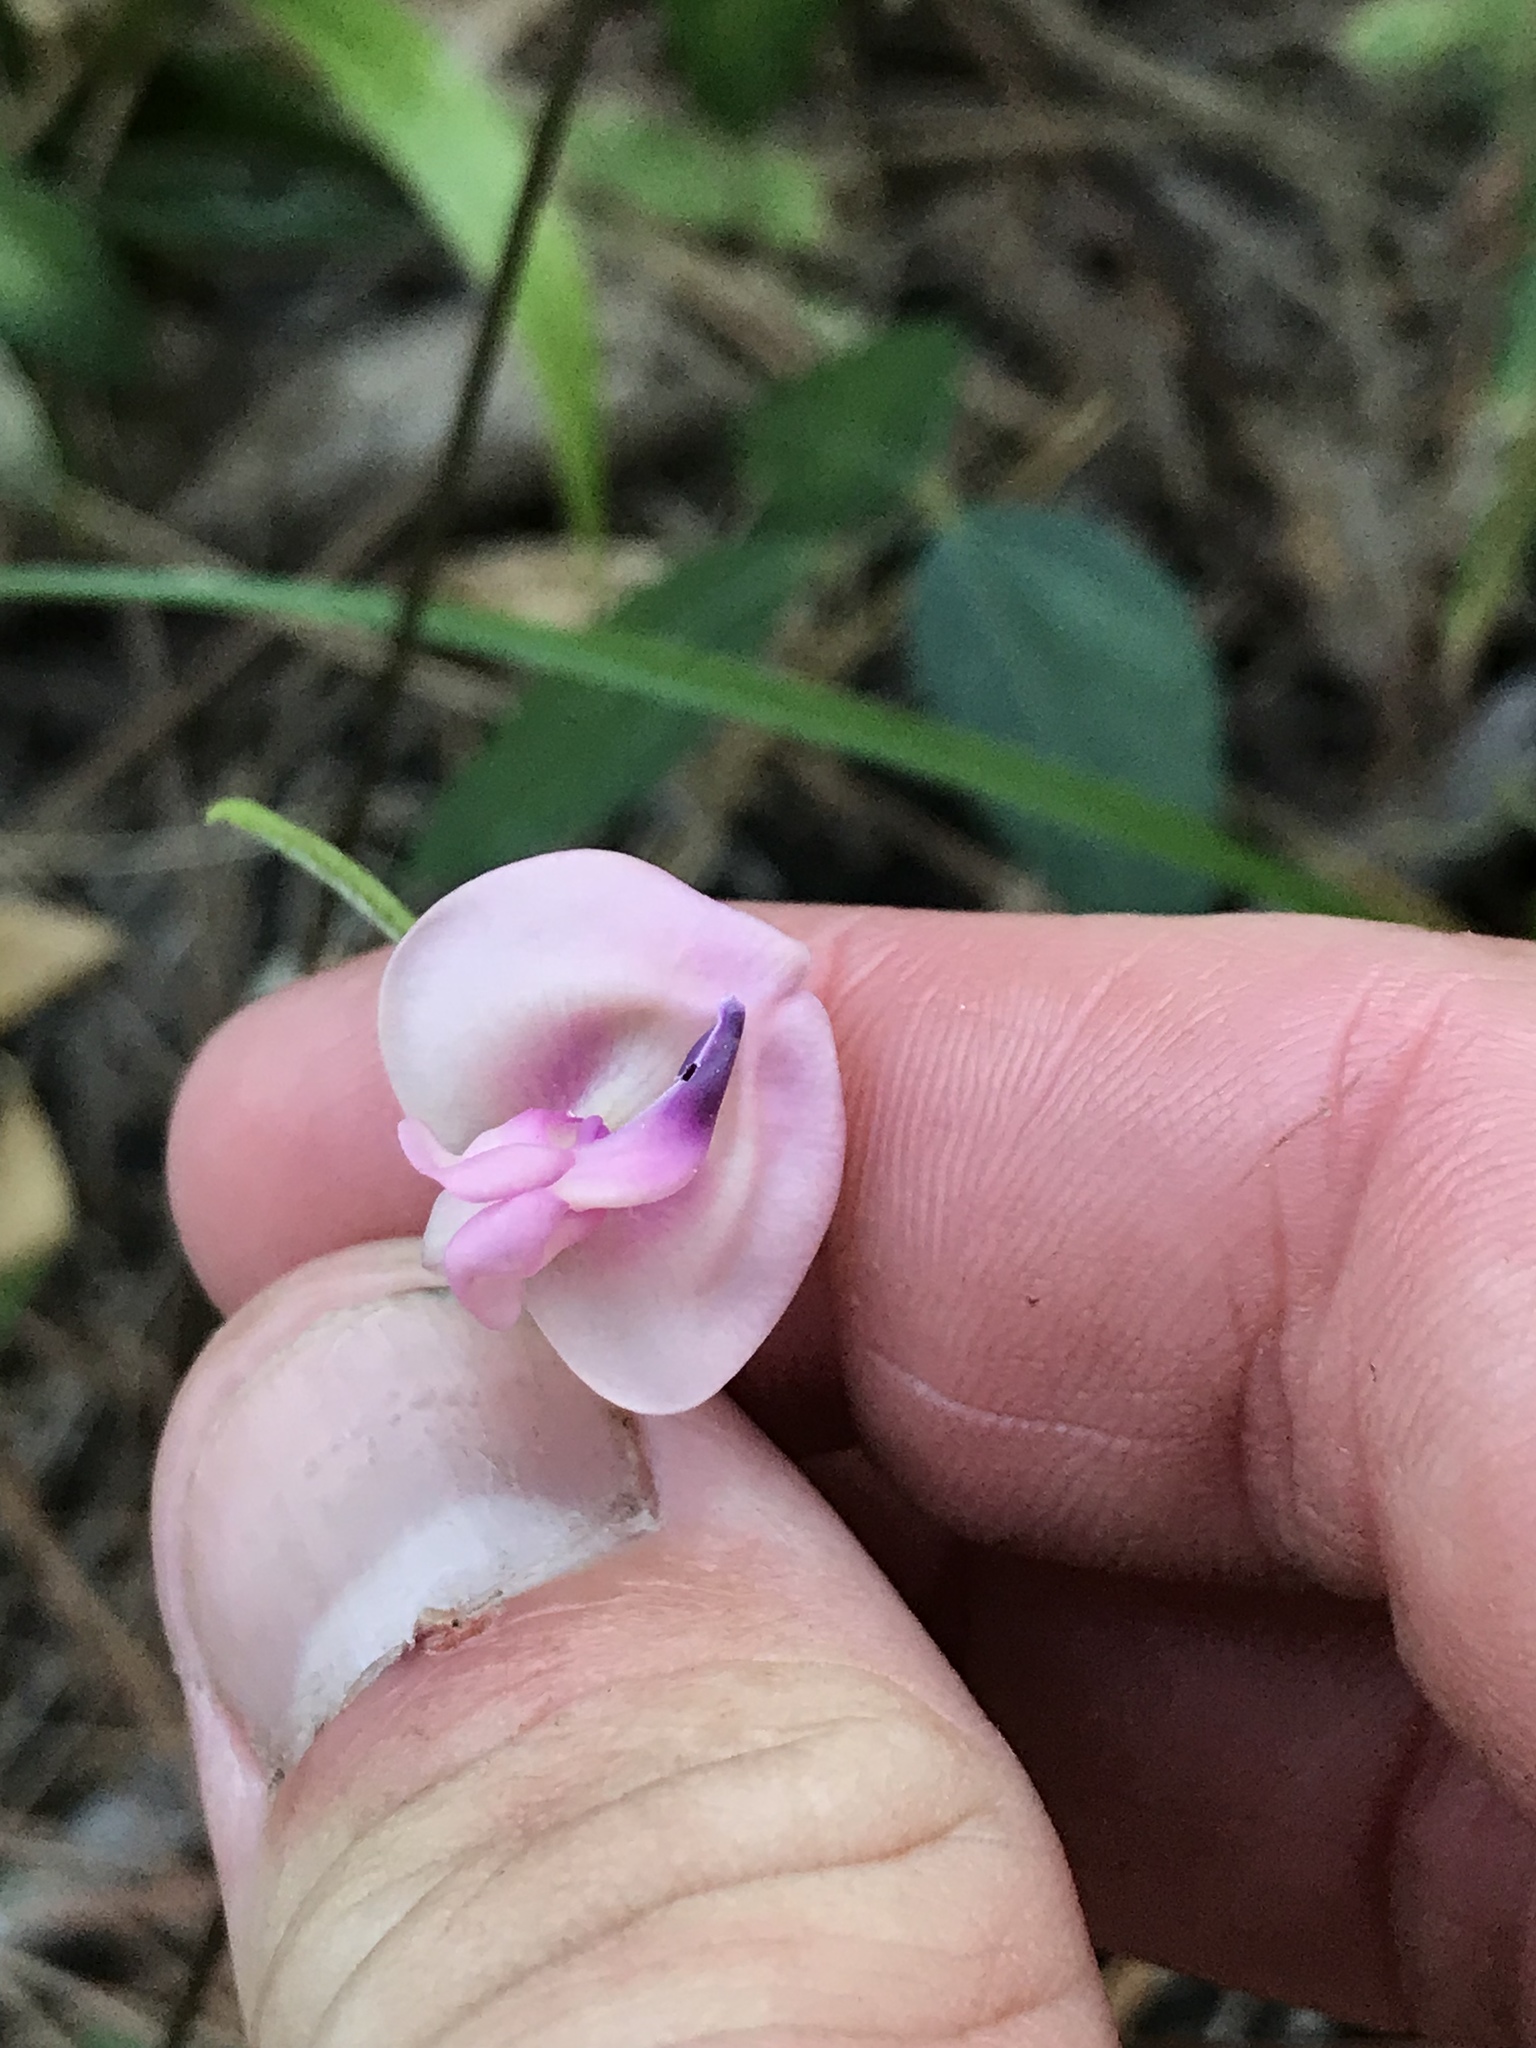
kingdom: Plantae
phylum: Tracheophyta
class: Magnoliopsida
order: Fabales
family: Fabaceae
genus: Strophostyles
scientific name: Strophostyles umbellata
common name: Perennial wild bean
